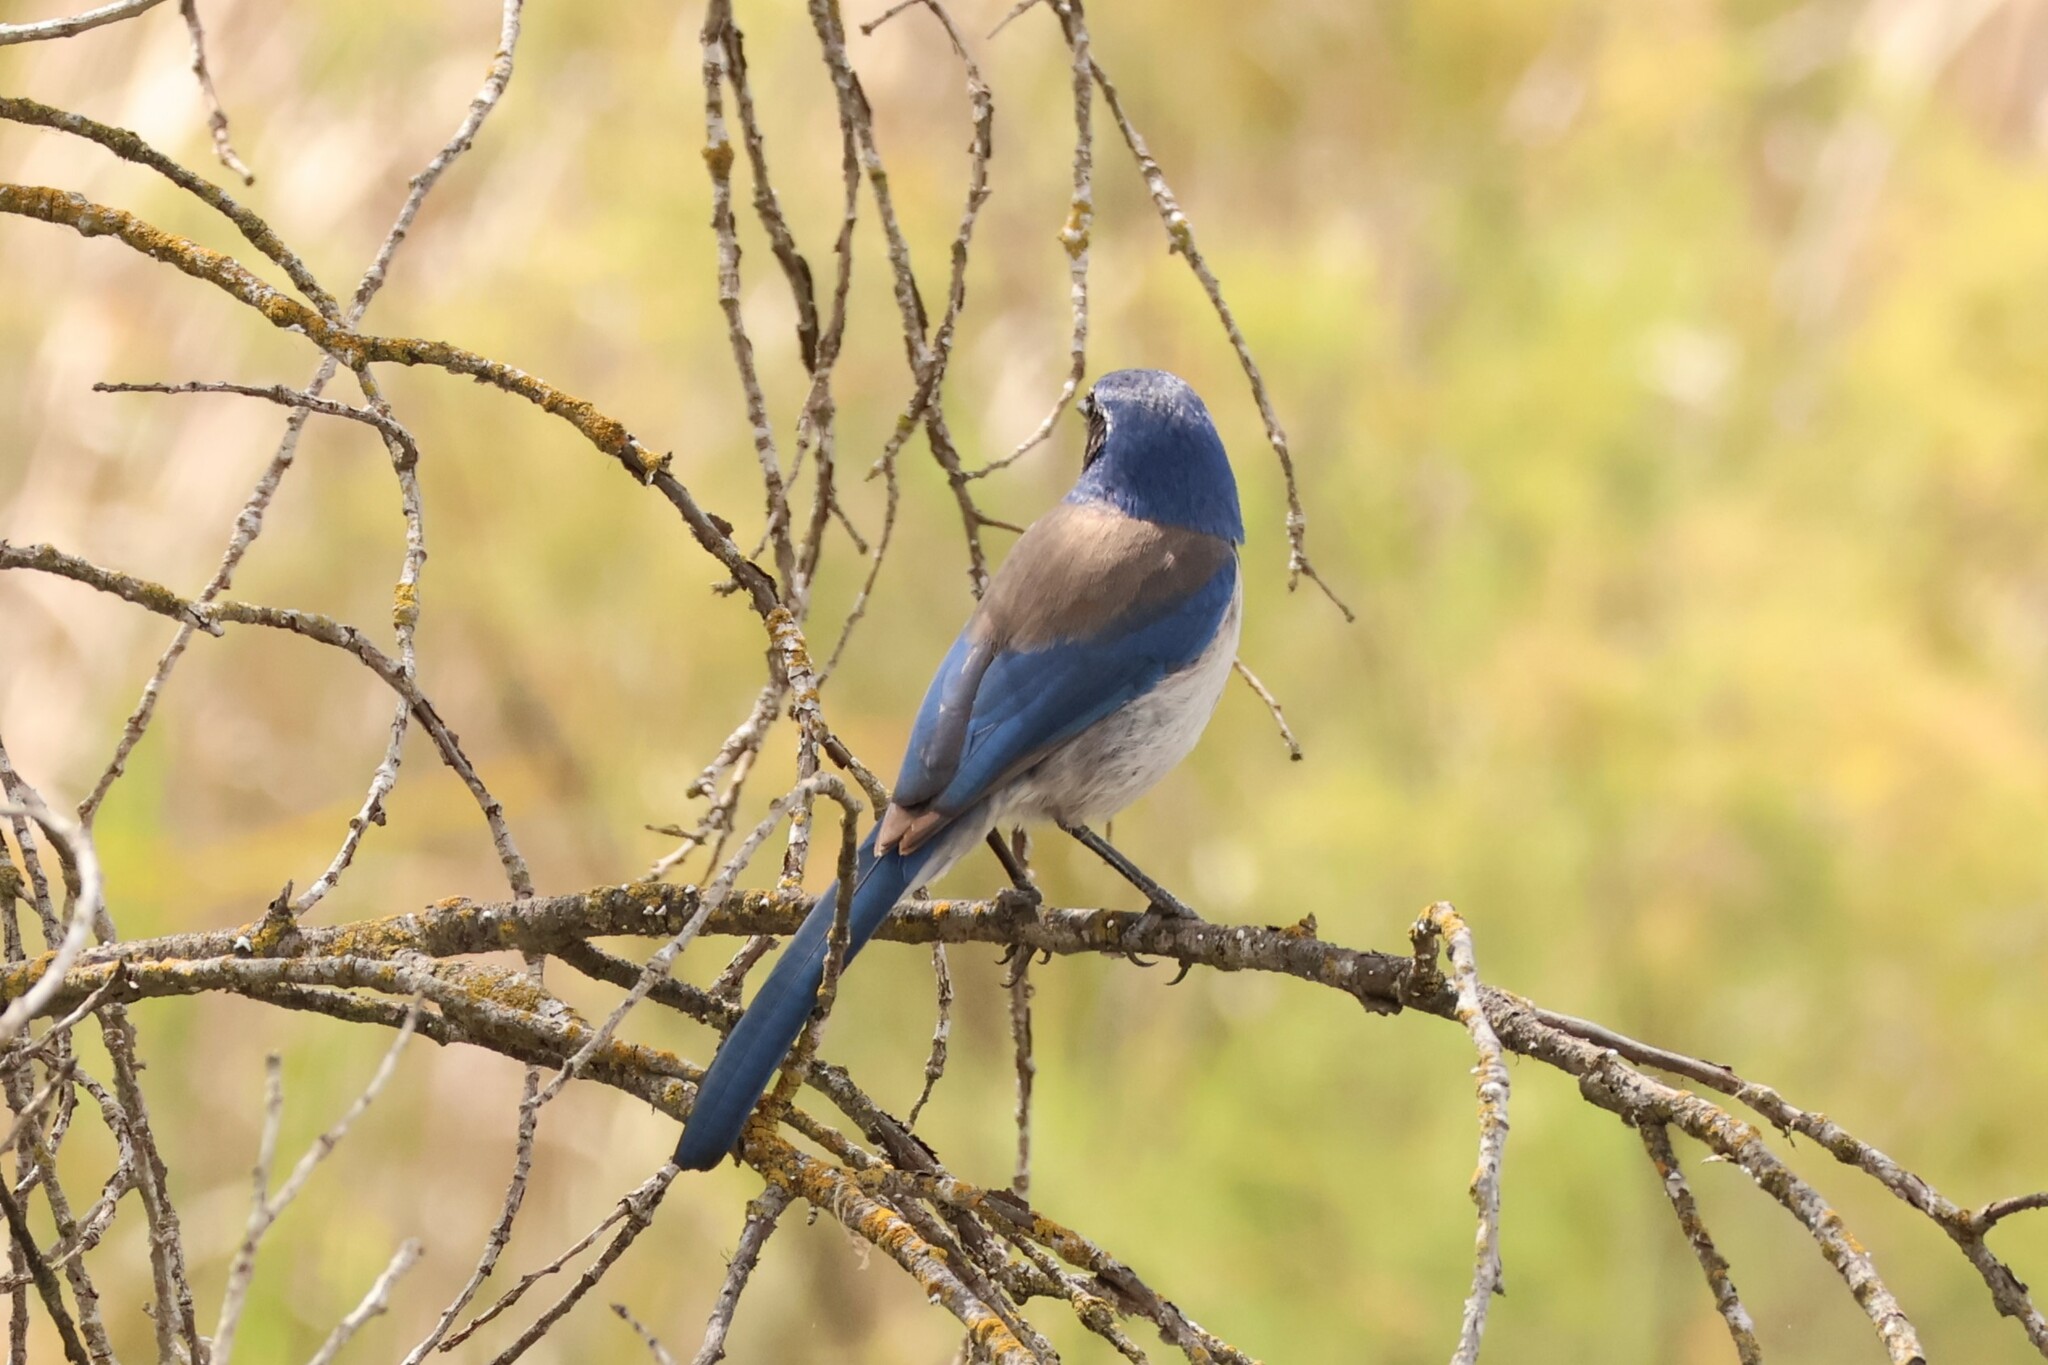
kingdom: Animalia
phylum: Chordata
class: Aves
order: Passeriformes
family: Corvidae
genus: Aphelocoma
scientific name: Aphelocoma californica
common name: California scrub-jay
